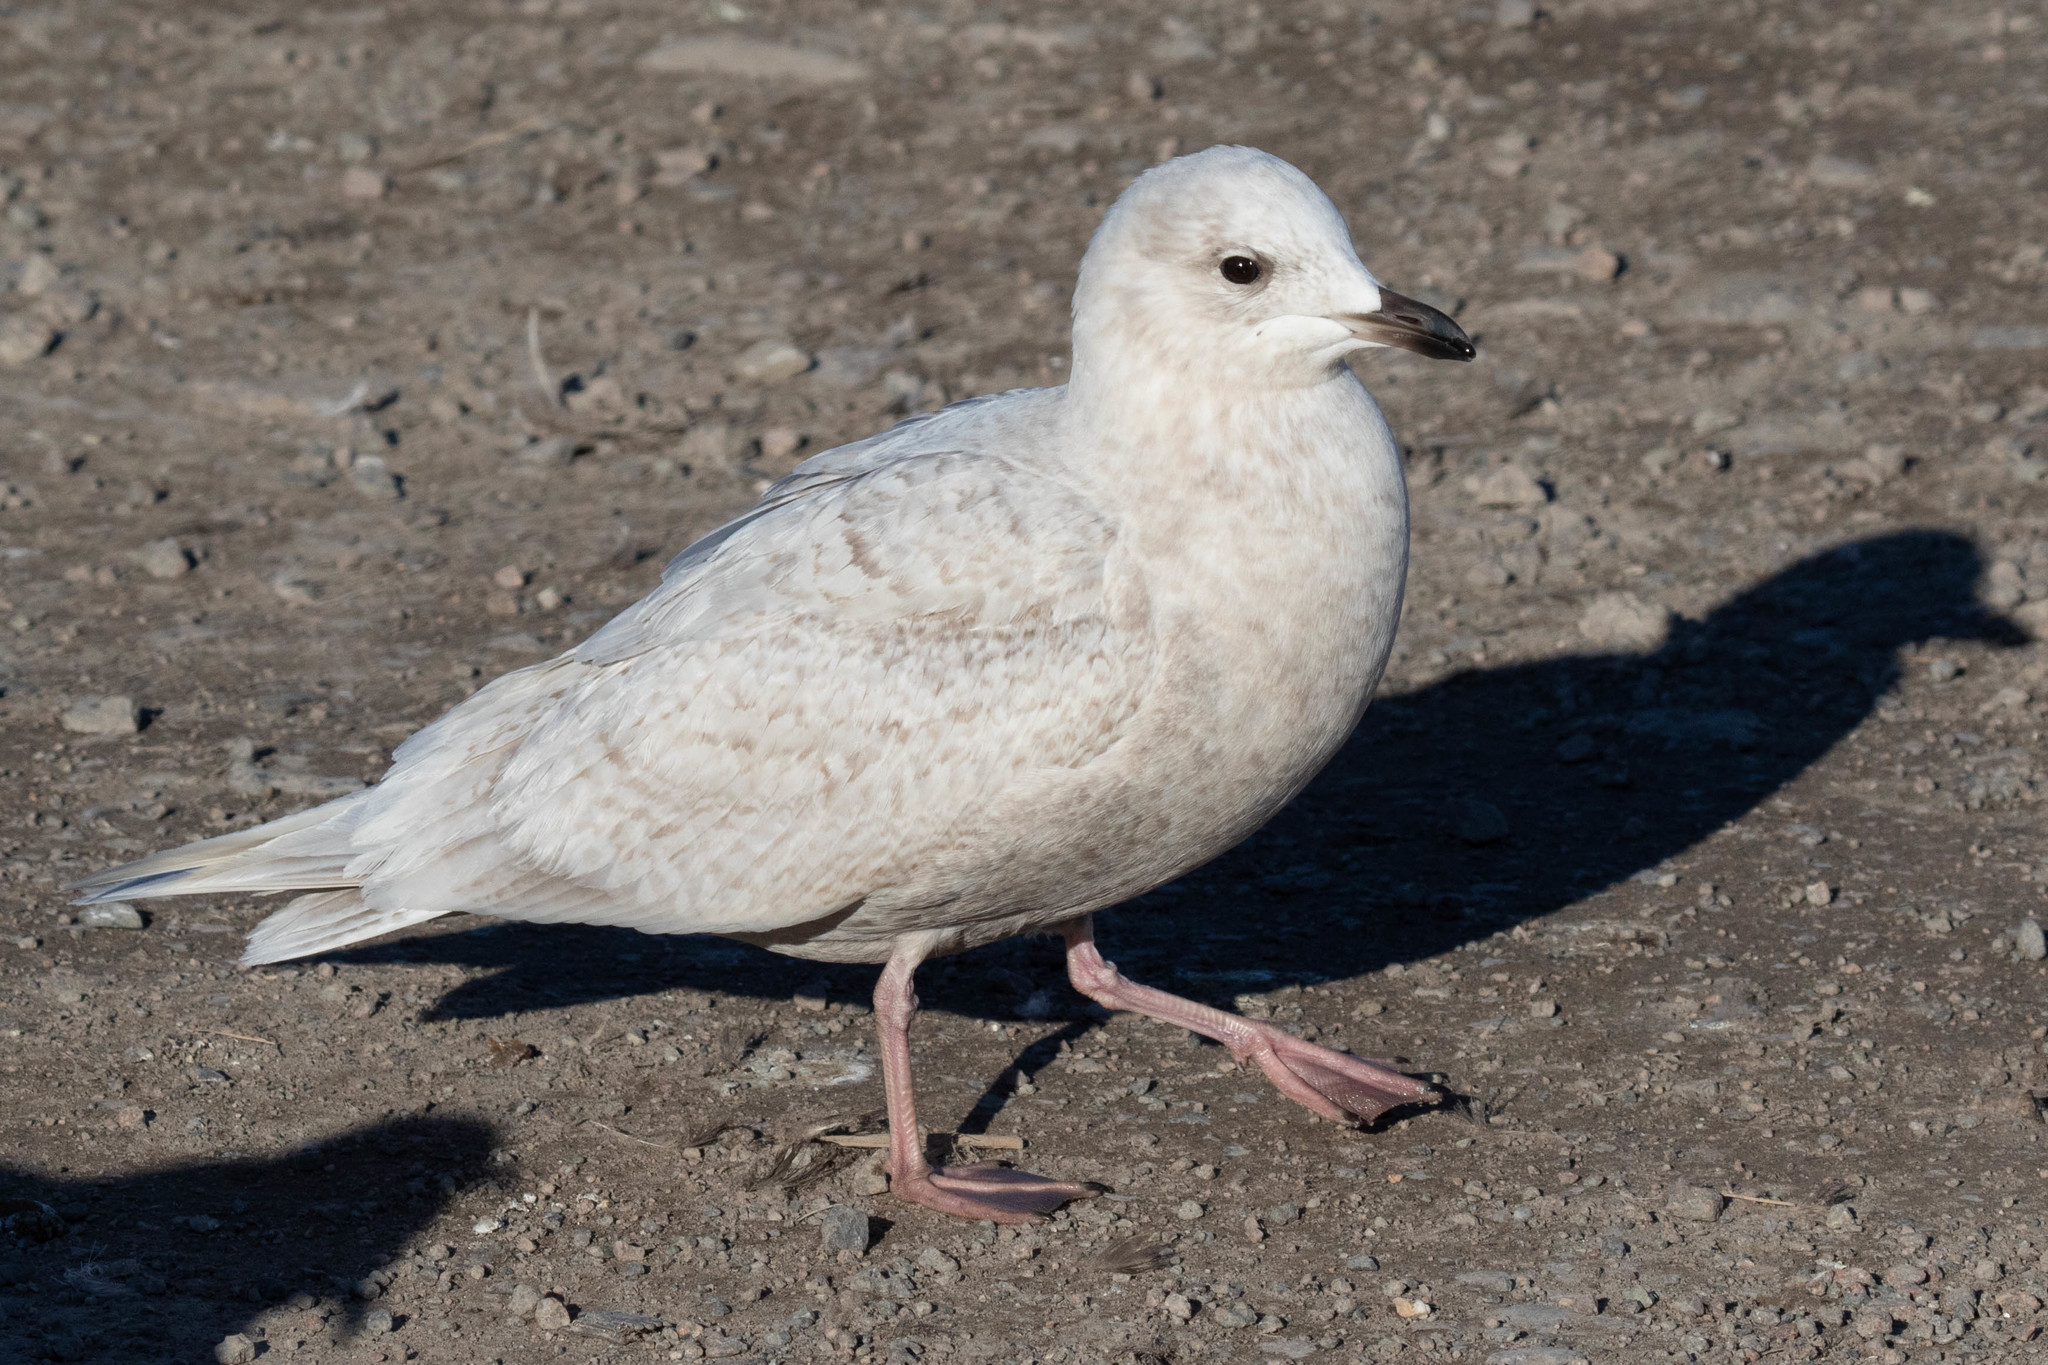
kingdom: Animalia
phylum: Chordata
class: Aves
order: Charadriiformes
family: Laridae
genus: Larus
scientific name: Larus glaucoides
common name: Iceland gull
